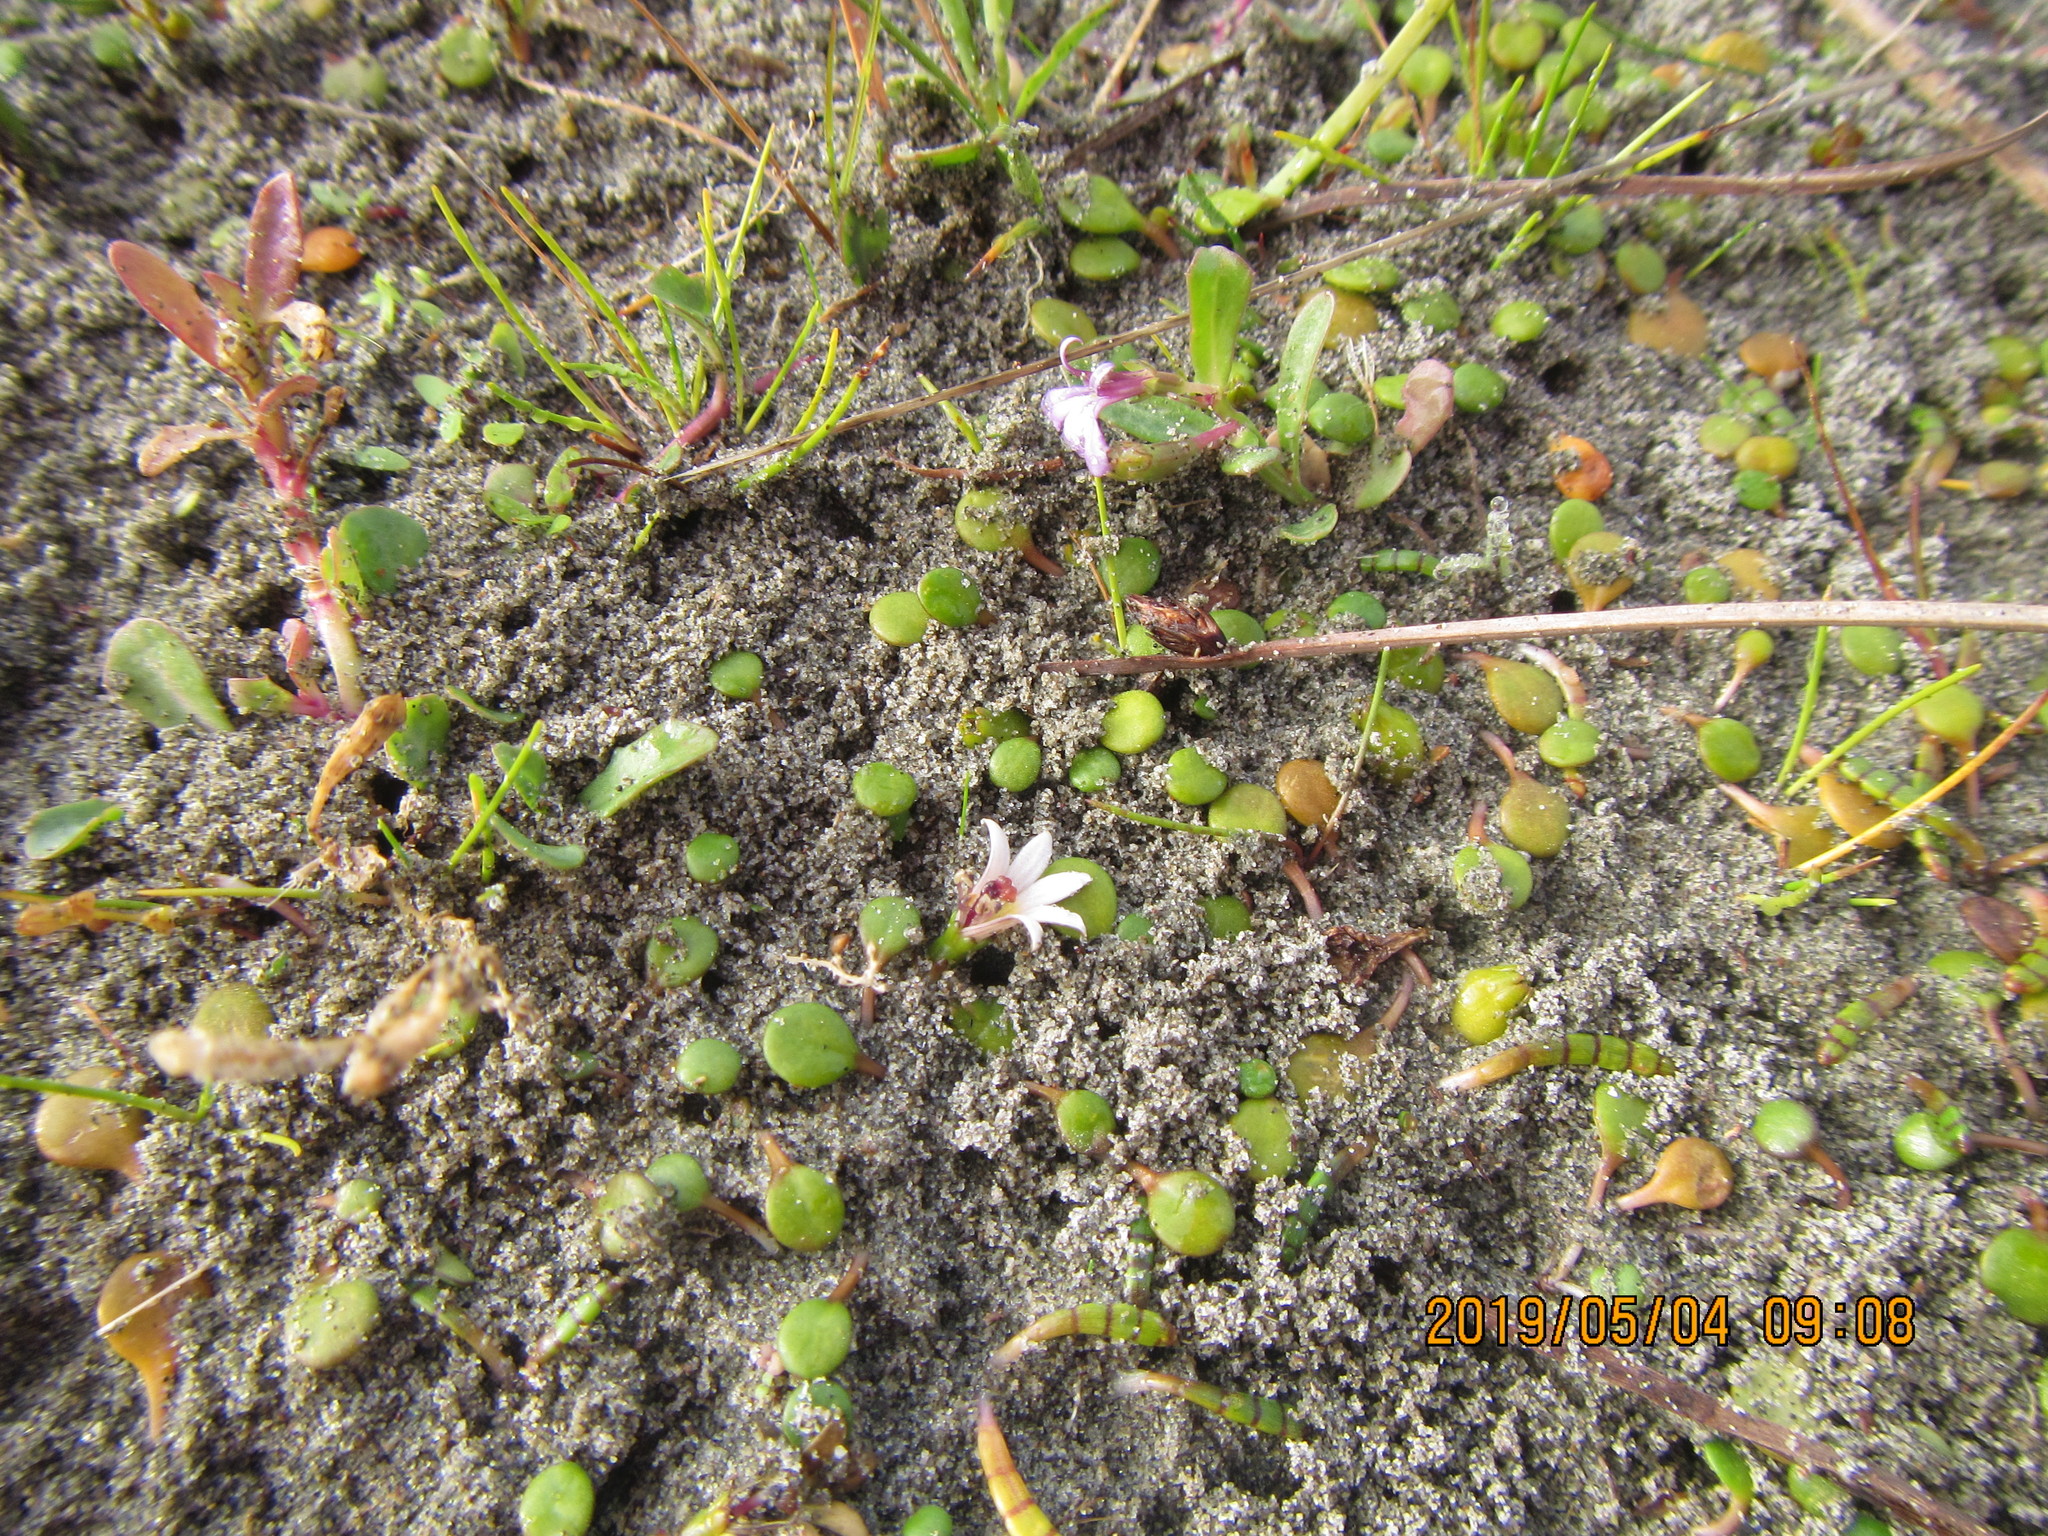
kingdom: Plantae
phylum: Tracheophyta
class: Magnoliopsida
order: Asterales
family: Goodeniaceae
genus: Goodenia
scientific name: Goodenia heenanii
